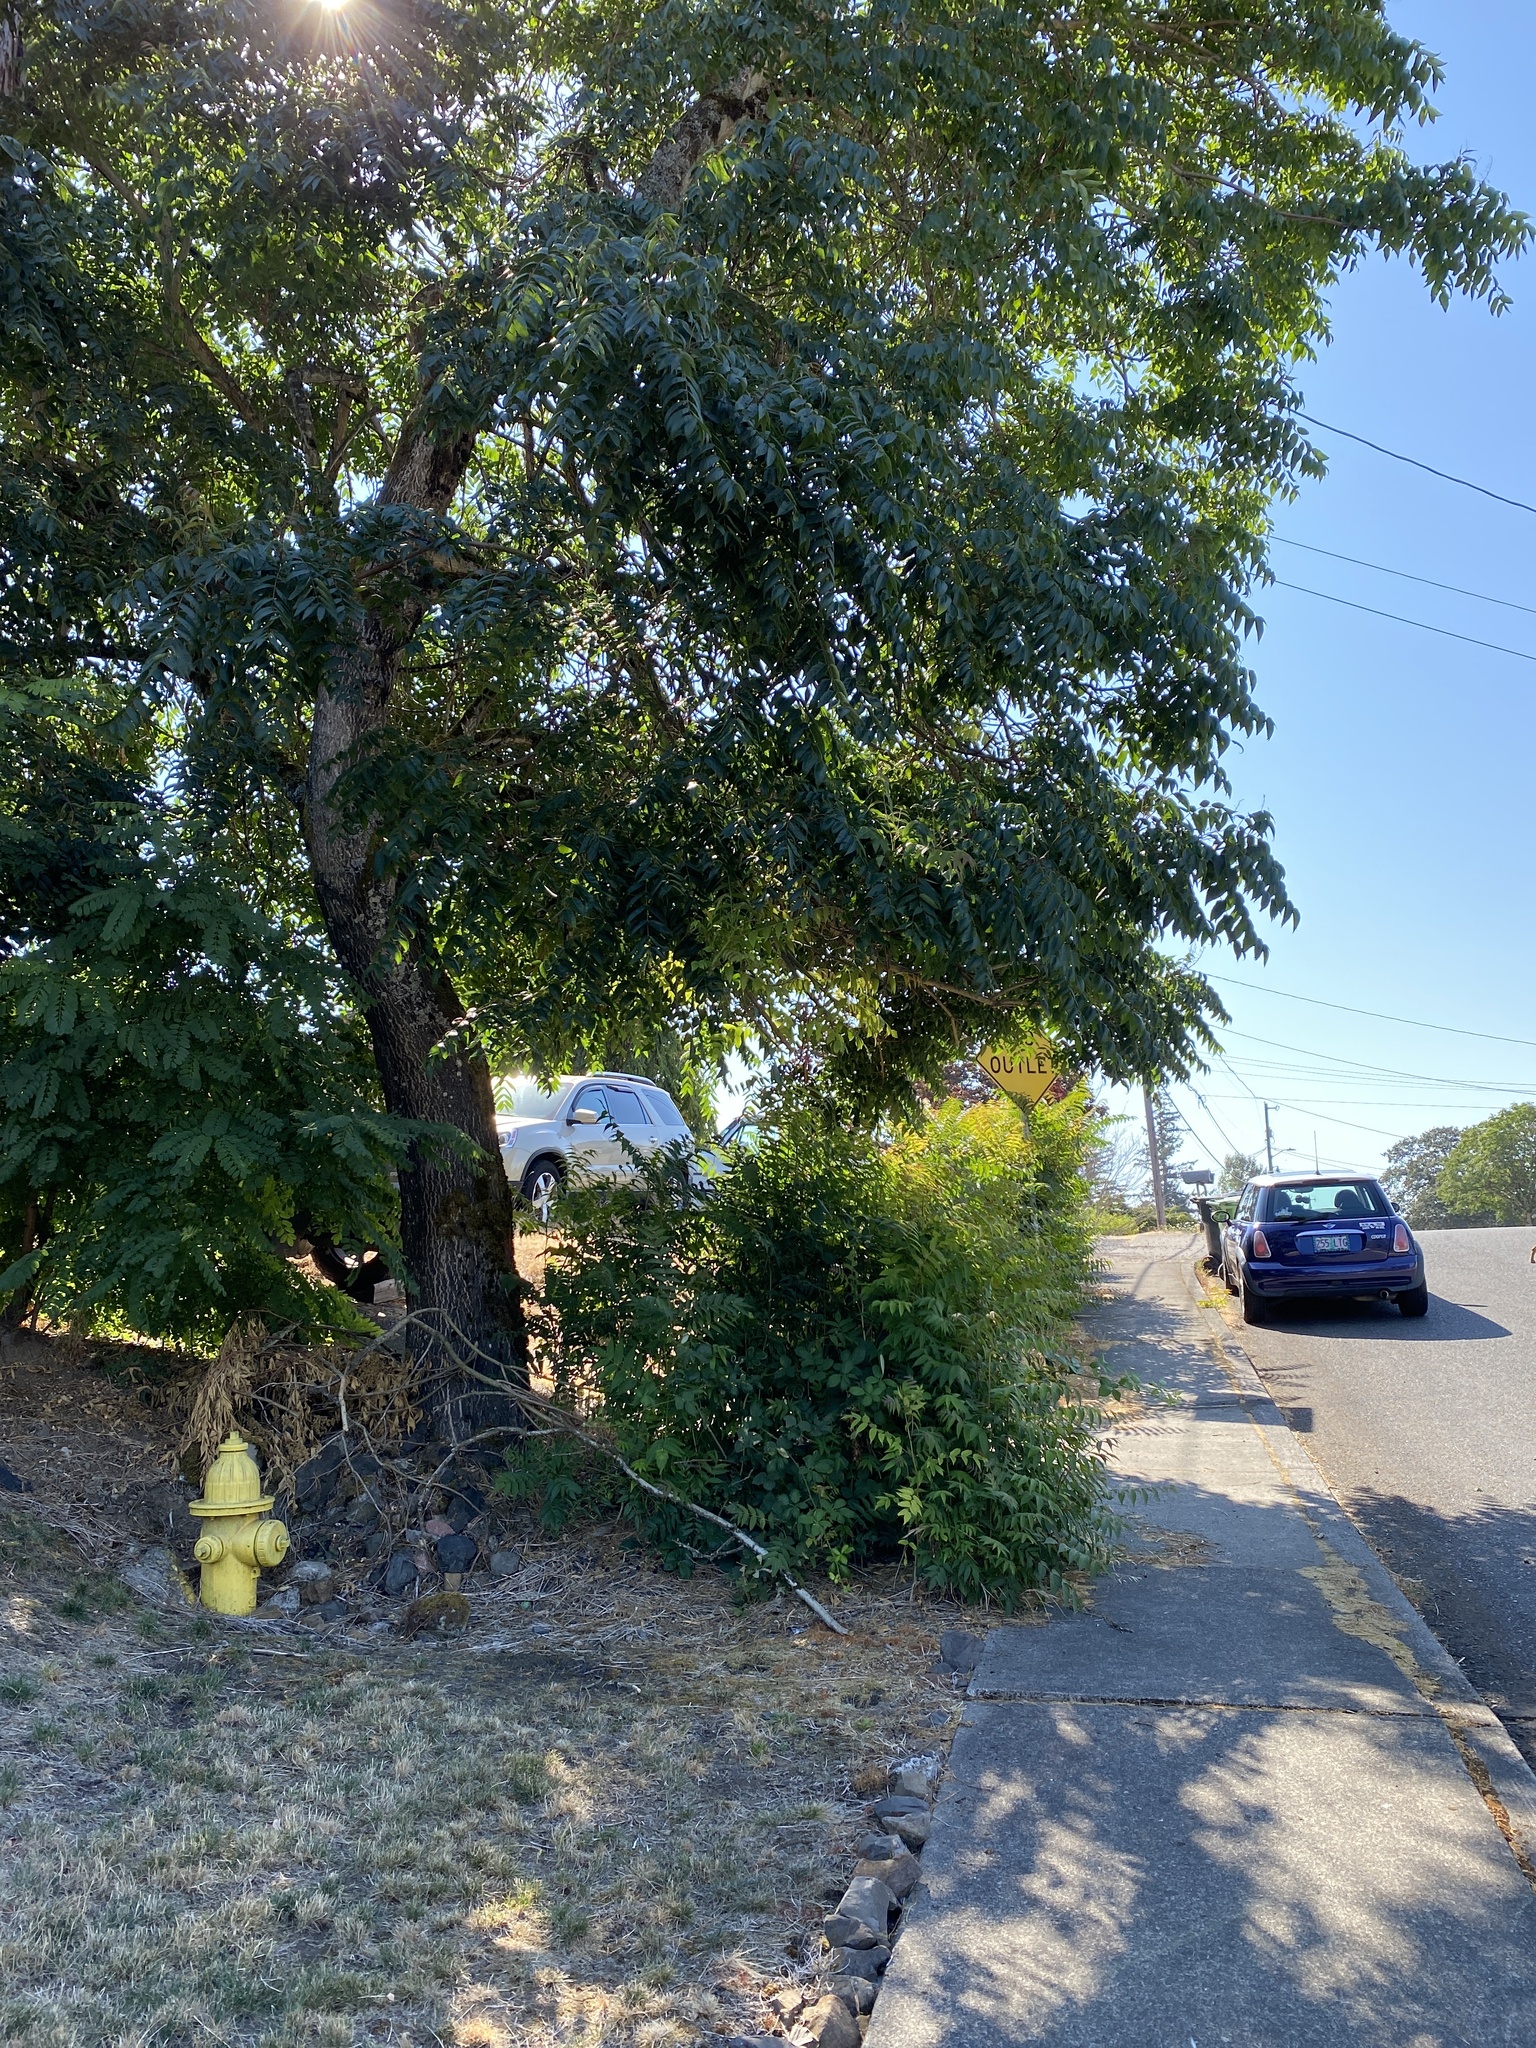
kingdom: Plantae
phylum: Tracheophyta
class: Magnoliopsida
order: Sapindales
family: Simaroubaceae
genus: Ailanthus
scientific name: Ailanthus altissima
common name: Tree-of-heaven
